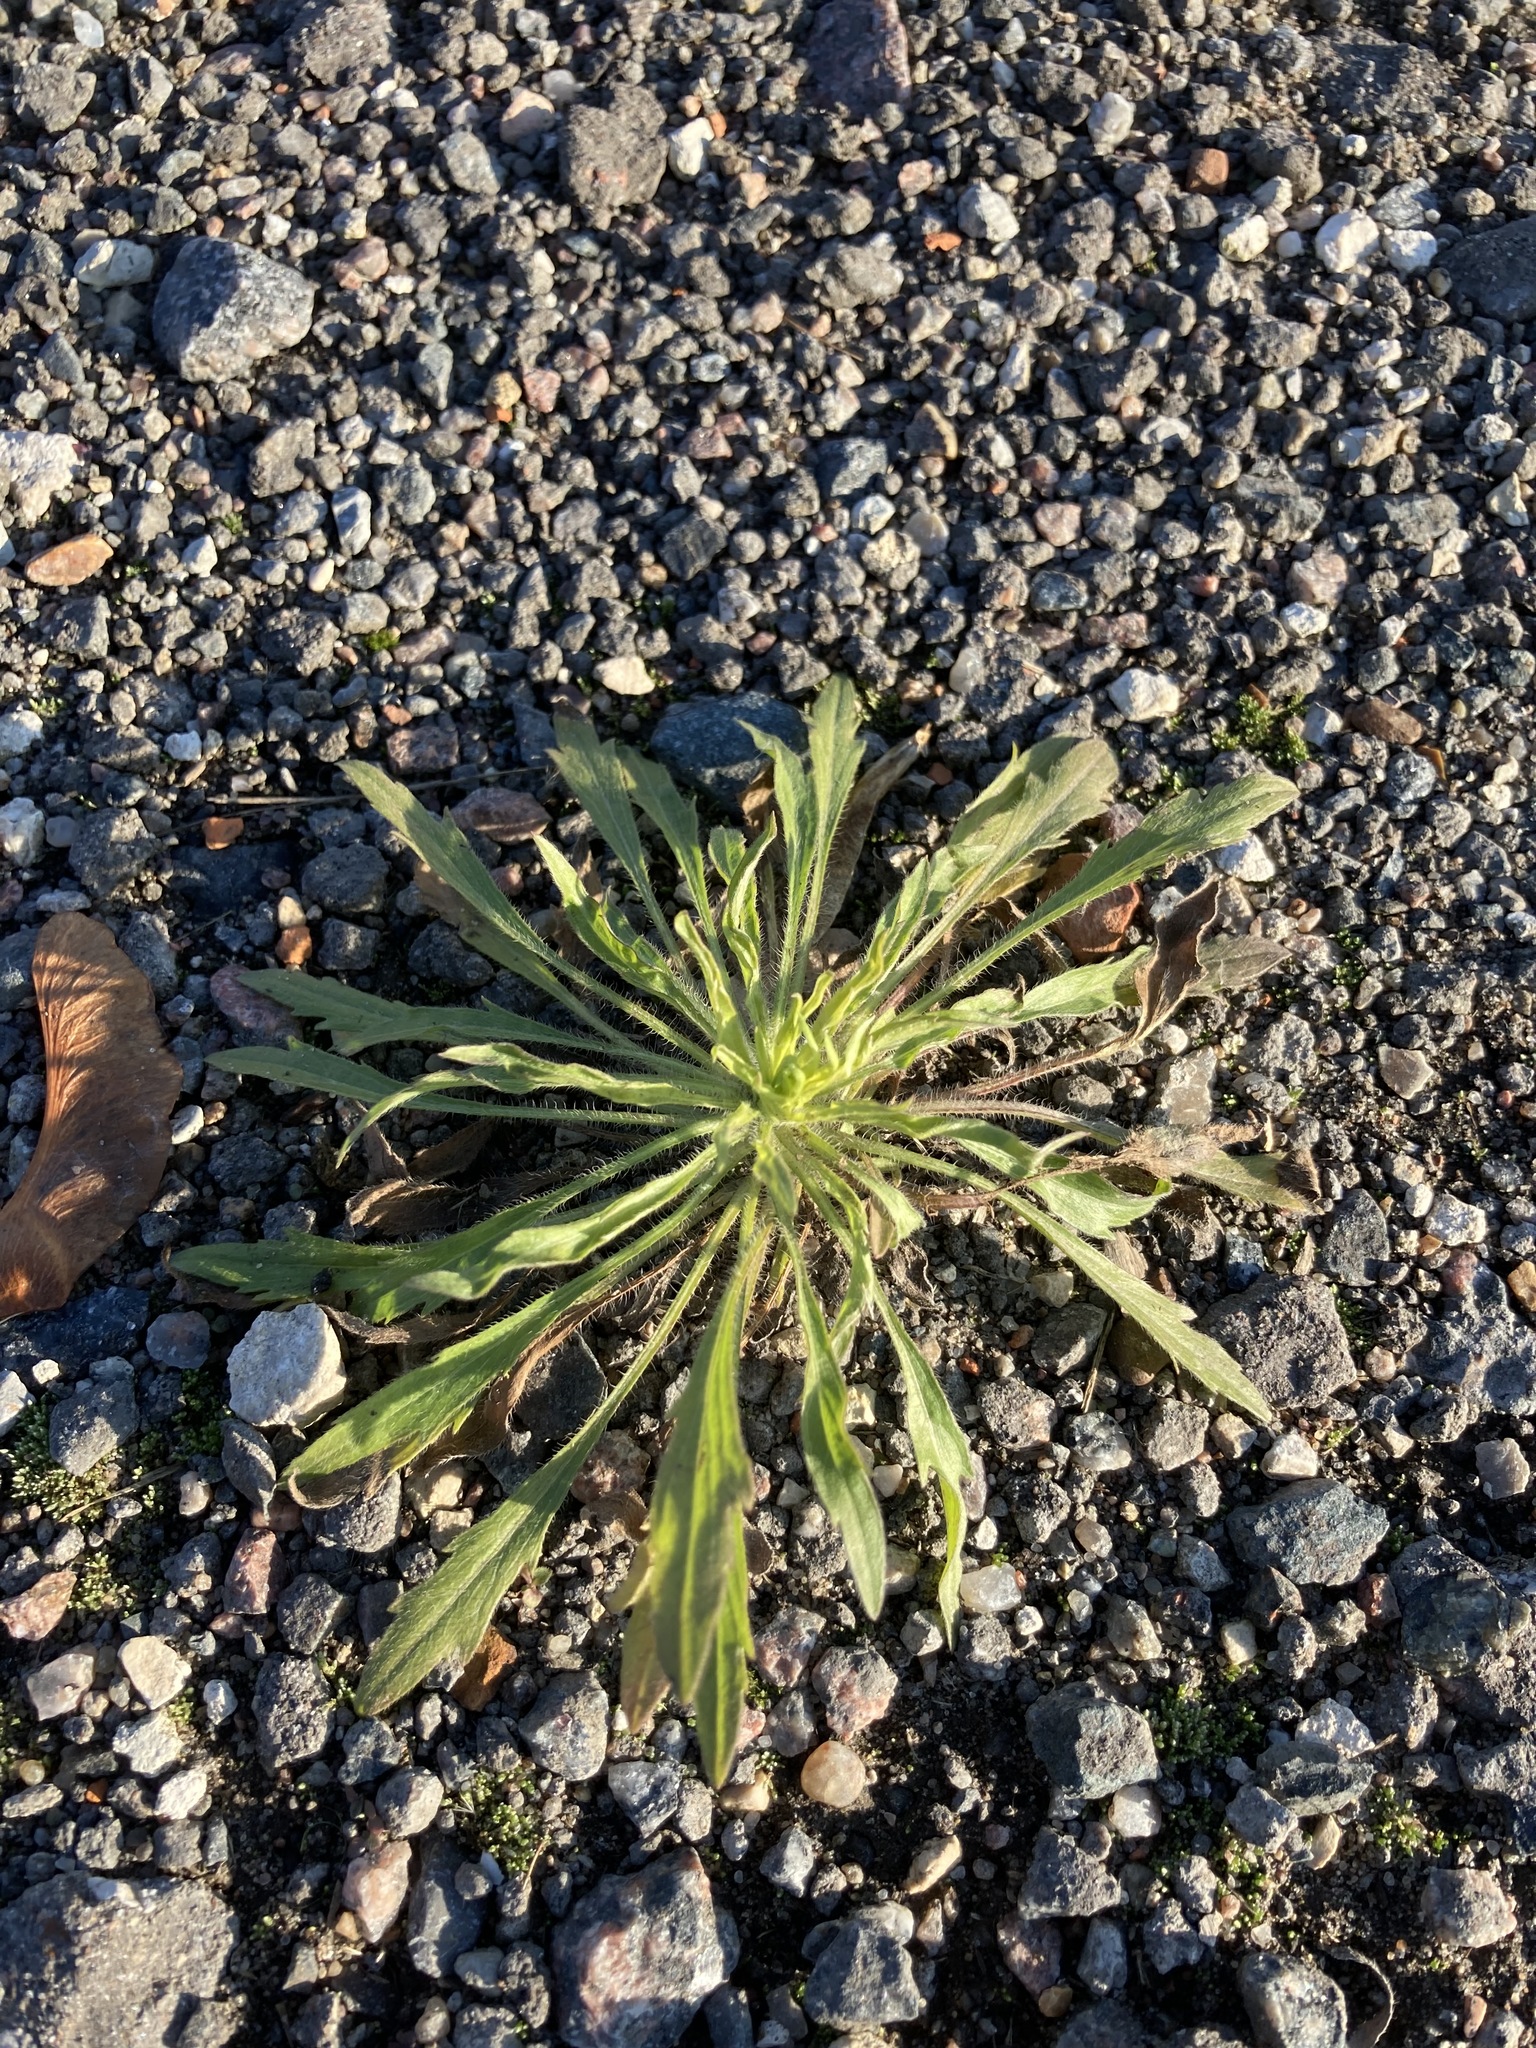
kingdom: Plantae
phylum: Tracheophyta
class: Magnoliopsida
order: Asterales
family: Asteraceae
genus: Erigeron
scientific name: Erigeron canadensis
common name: Canadian fleabane
